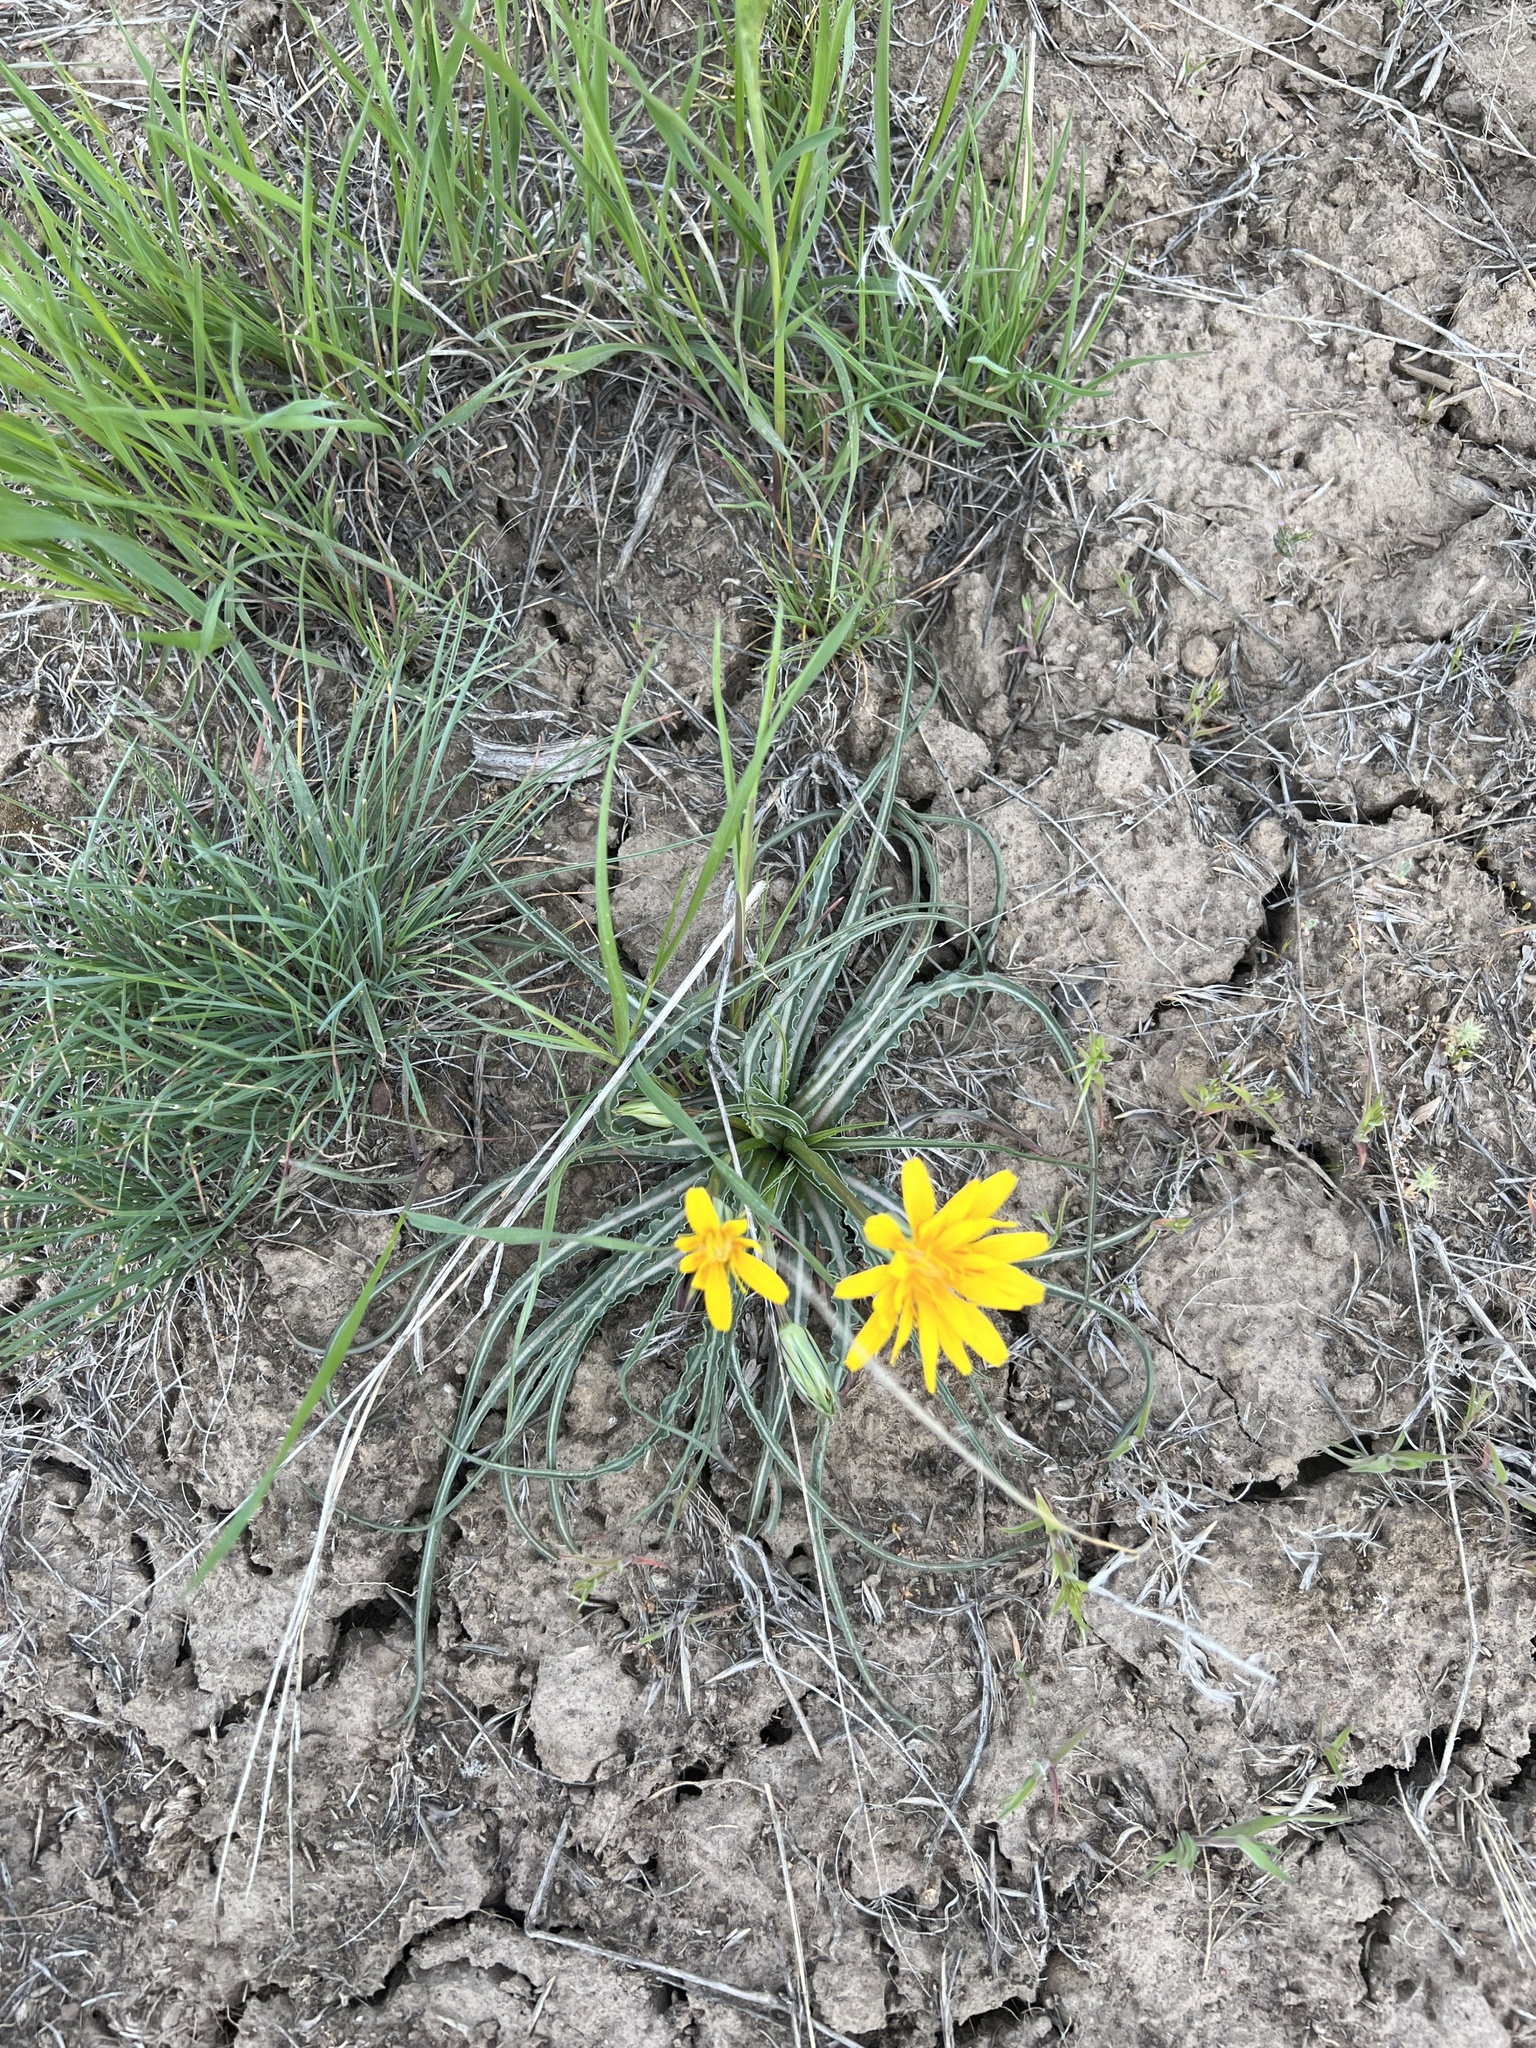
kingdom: Plantae
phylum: Tracheophyta
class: Magnoliopsida
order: Asterales
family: Asteraceae
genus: Microseris
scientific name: Microseris troximoides
